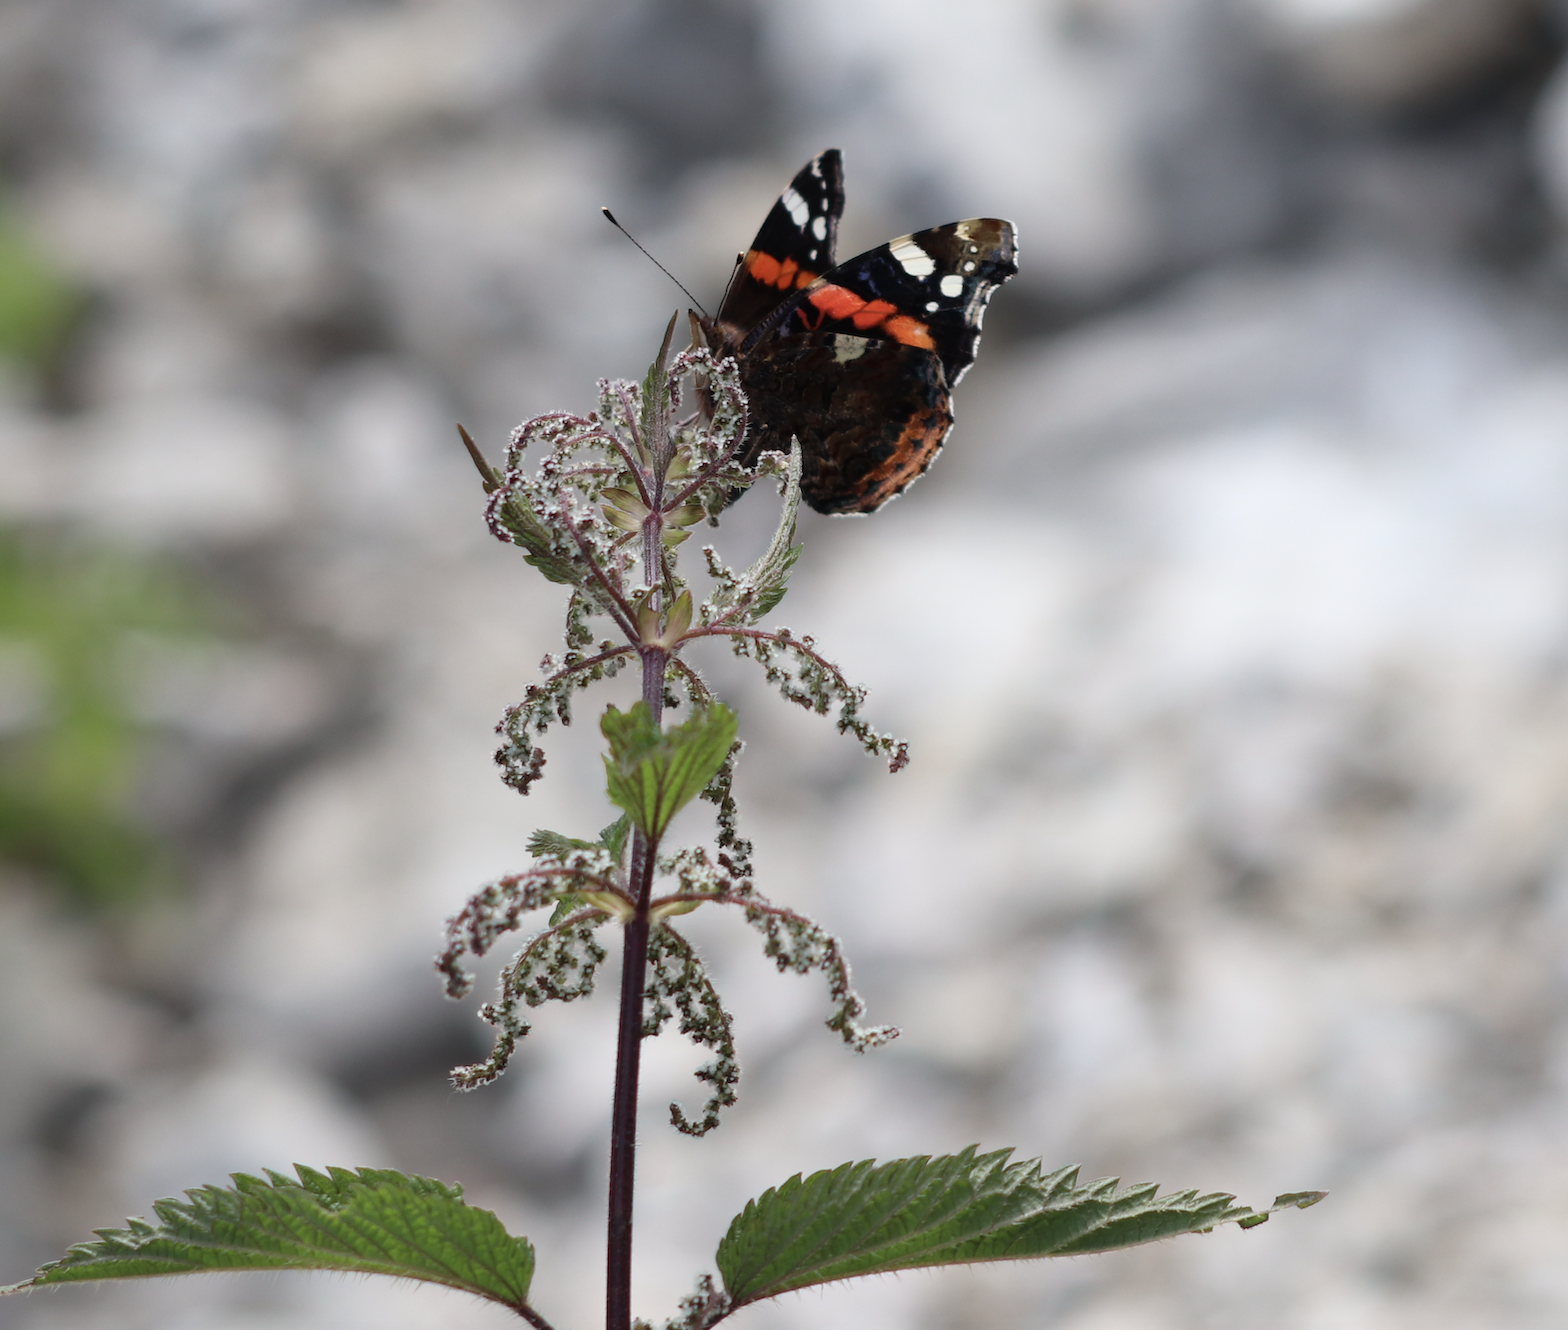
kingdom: Animalia
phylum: Arthropoda
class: Insecta
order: Lepidoptera
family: Nymphalidae
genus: Vanessa
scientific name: Vanessa atalanta
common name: Red admiral
